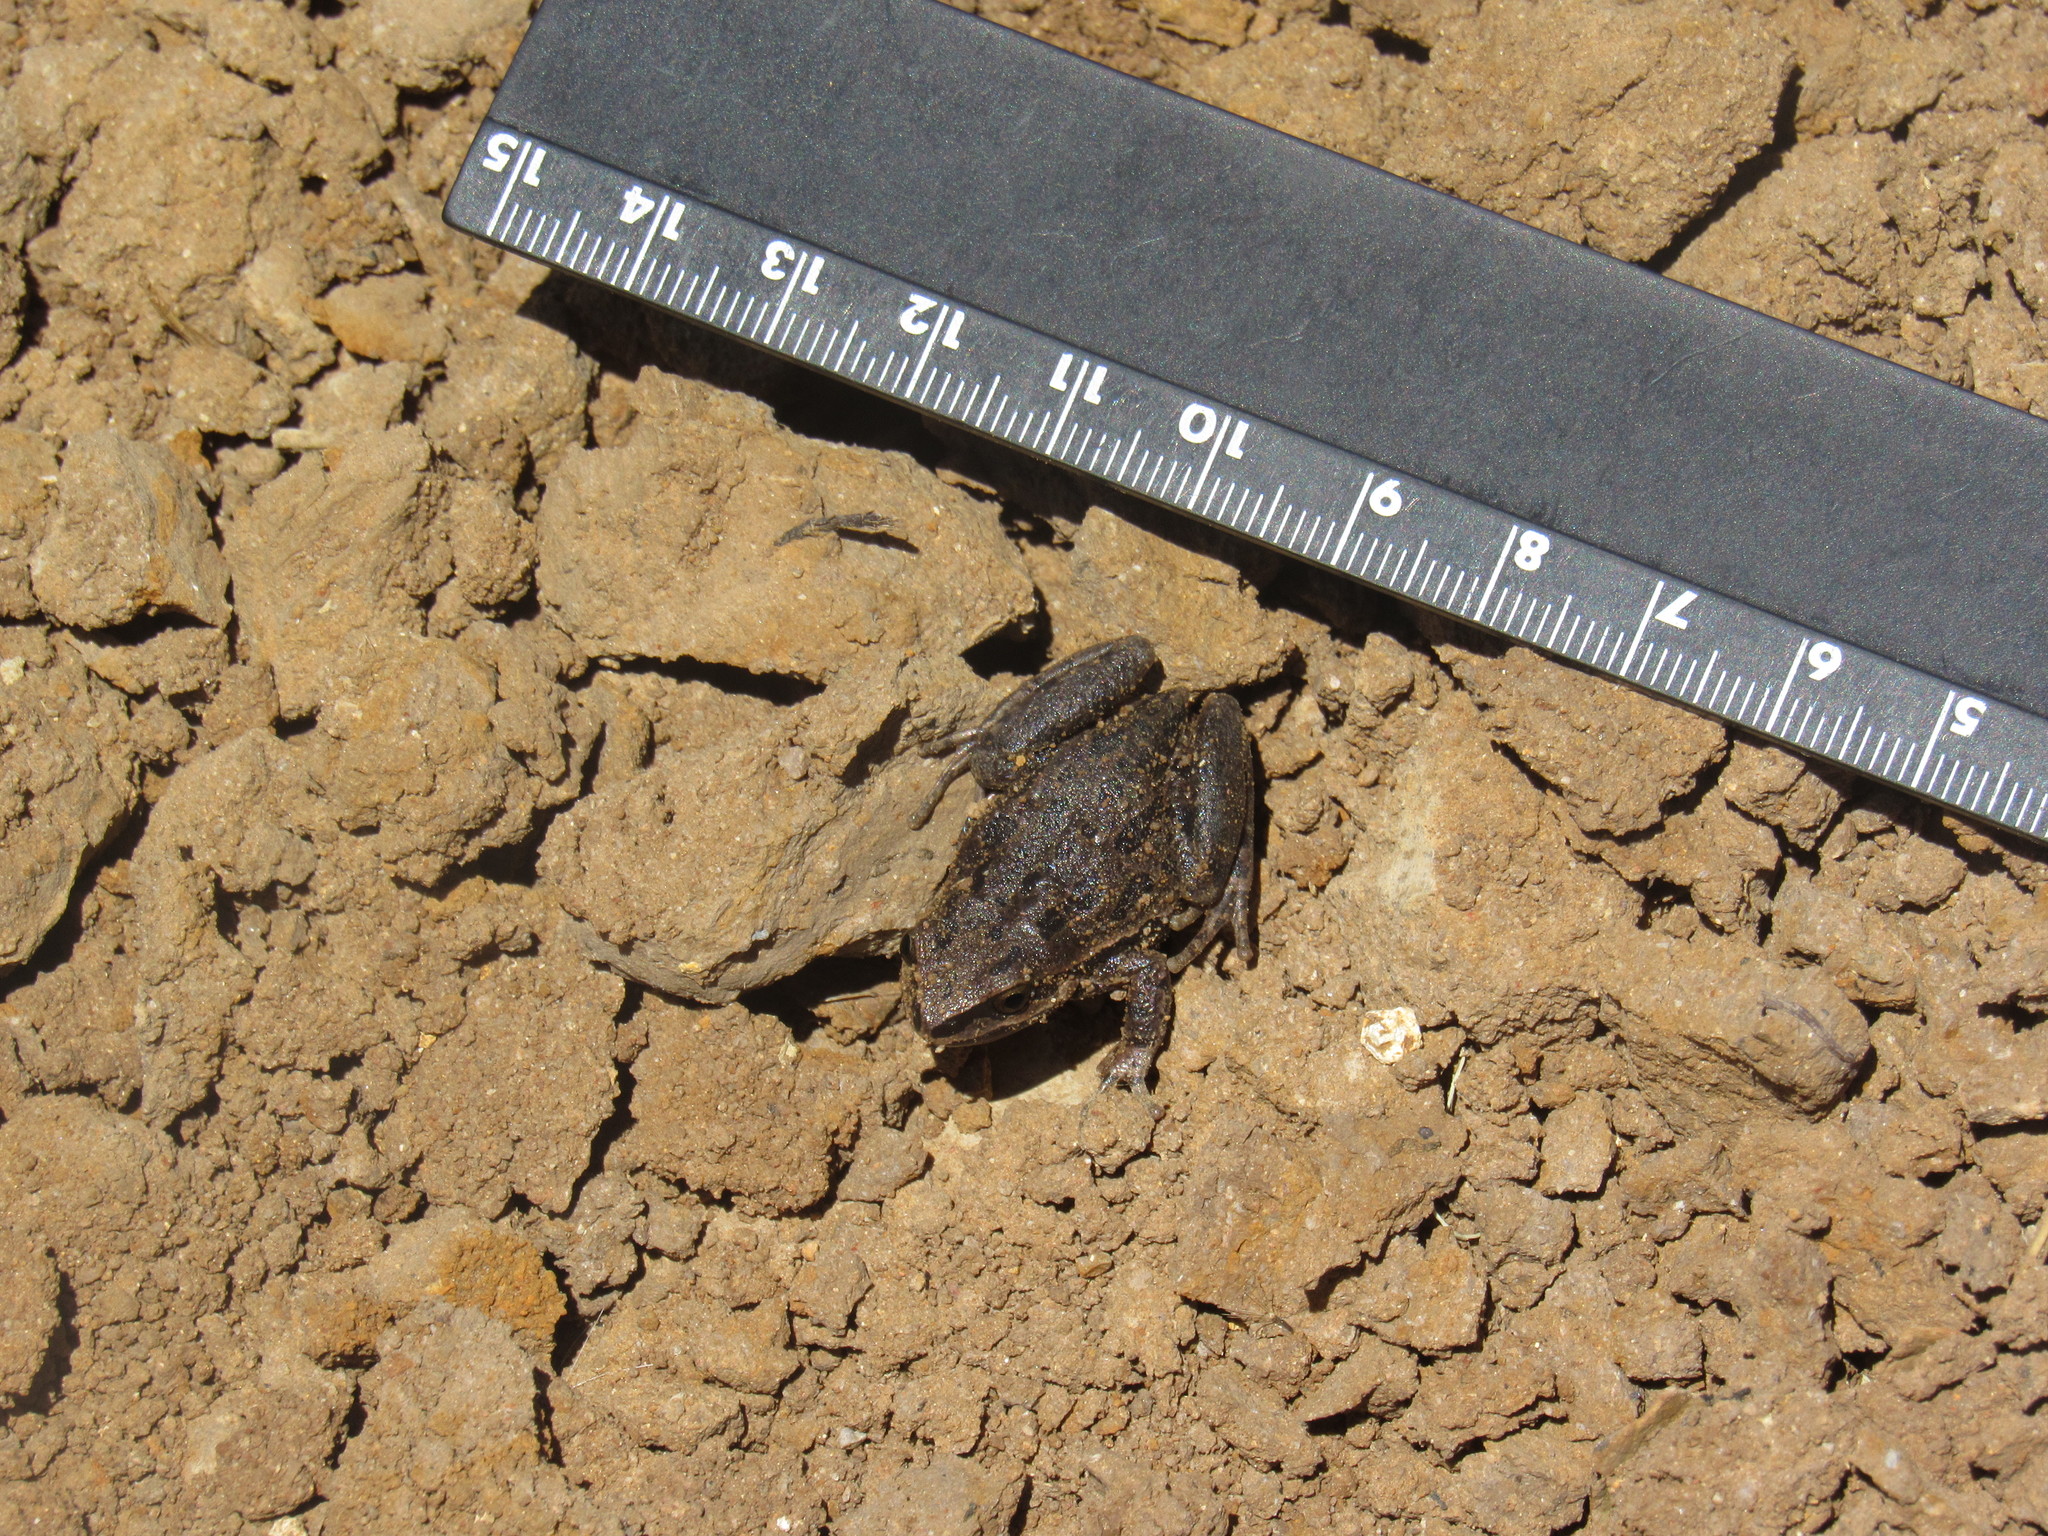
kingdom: Animalia
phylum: Chordata
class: Amphibia
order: Anura
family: Hylidae
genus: Dryophytes
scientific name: Dryophytes eximius
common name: Mountain treefrog
